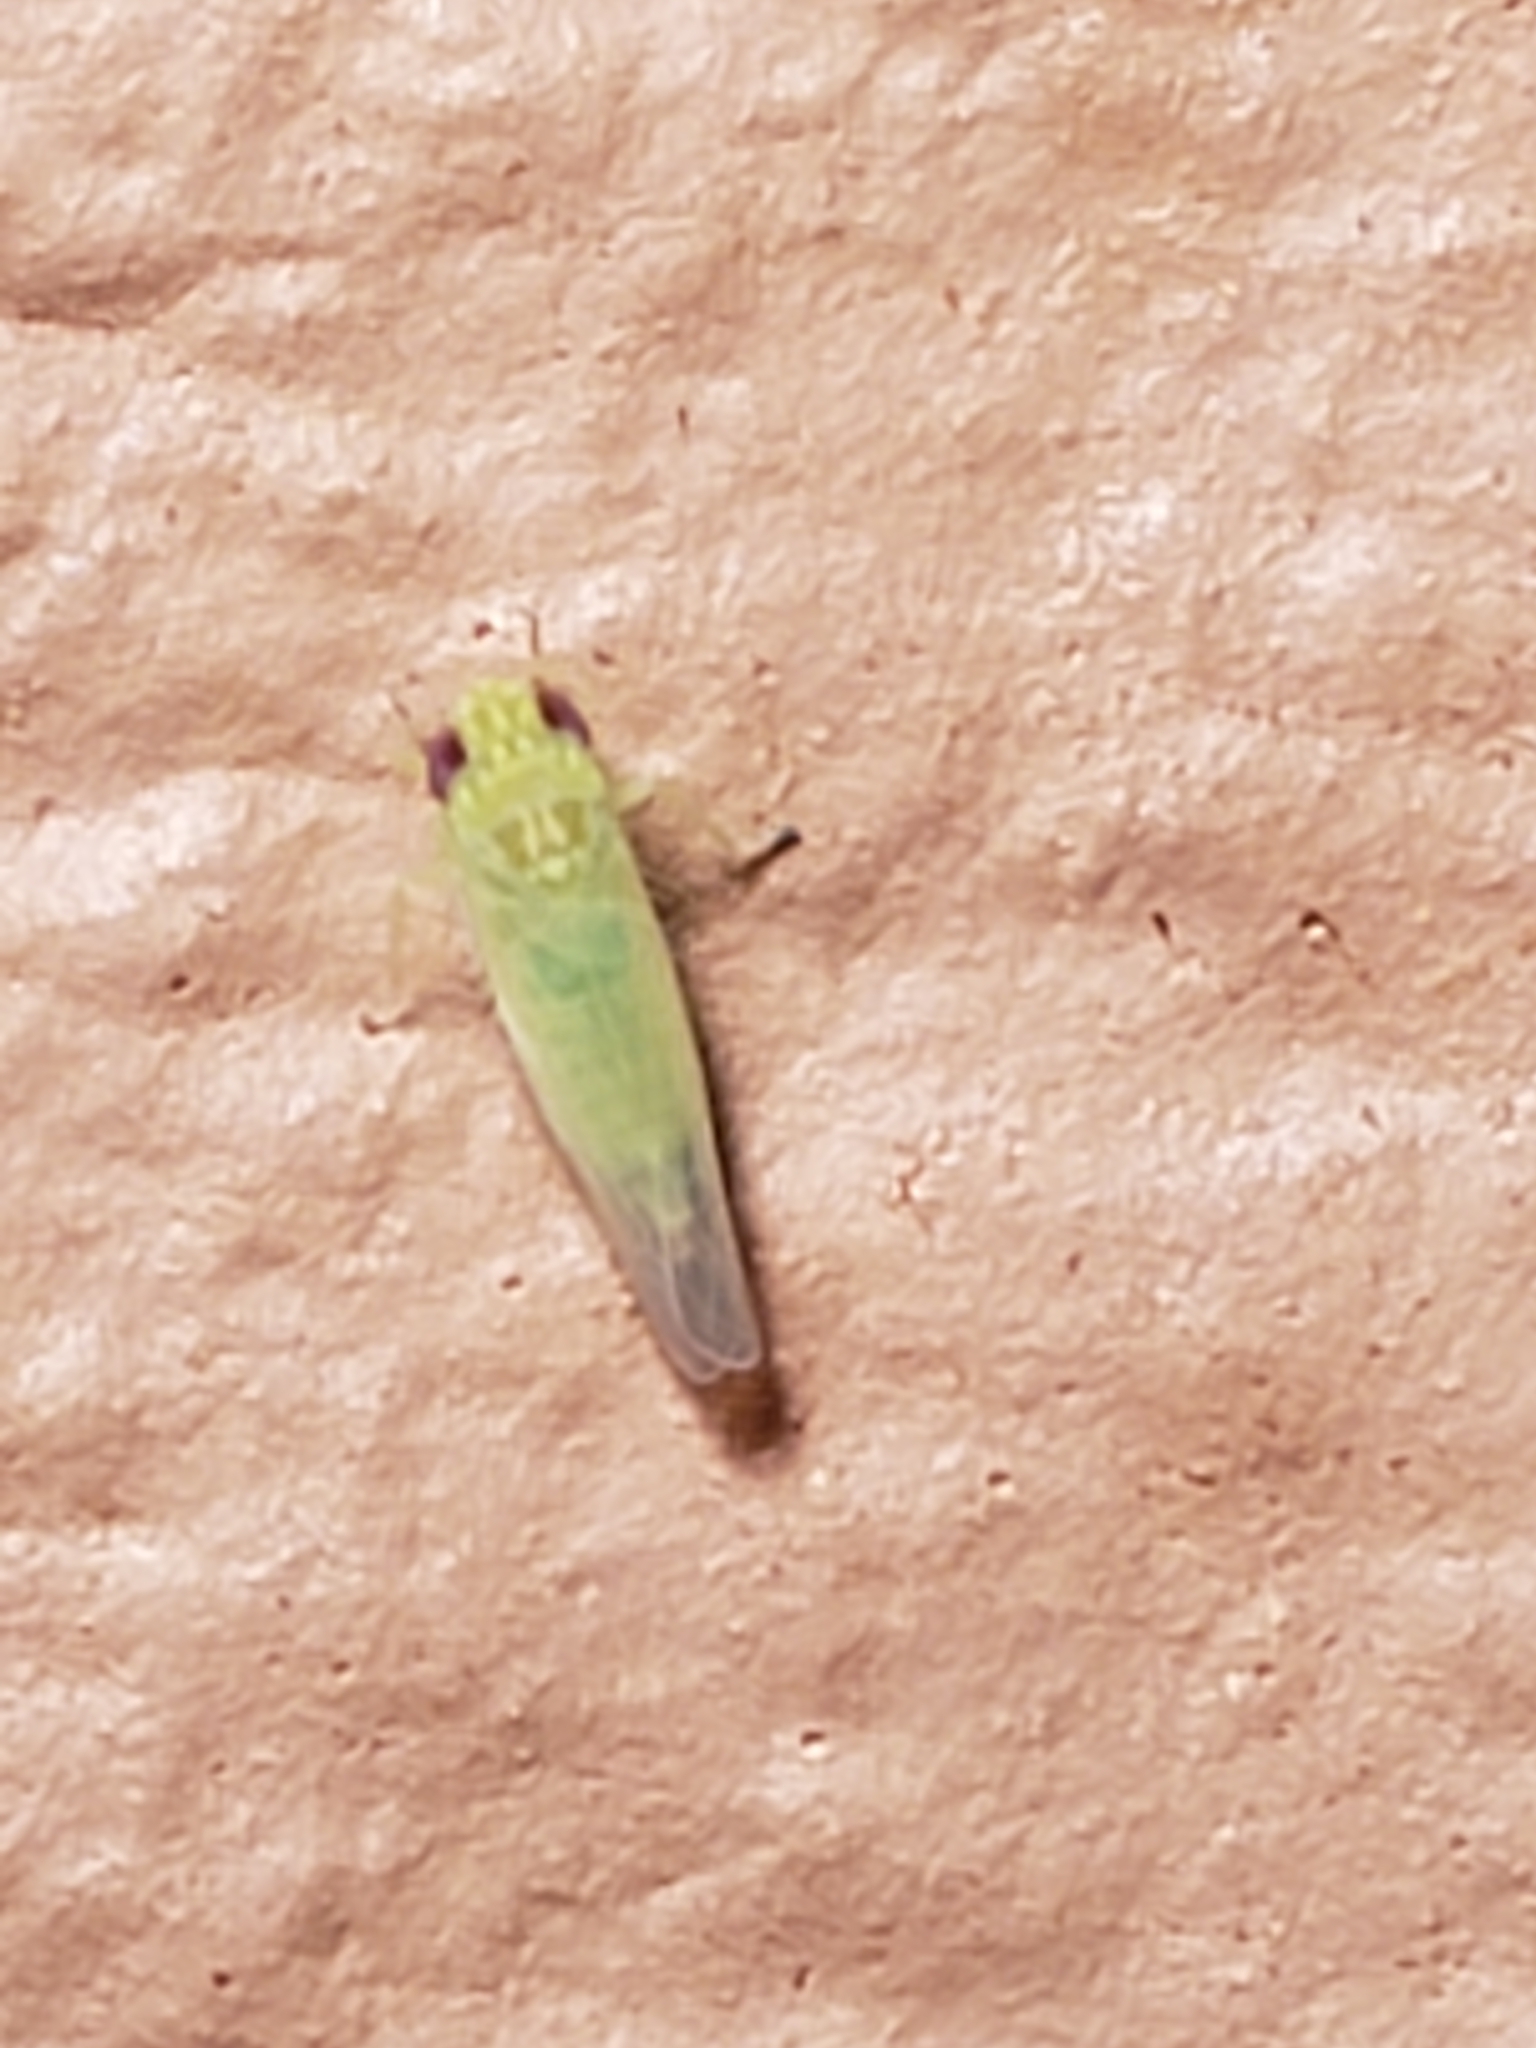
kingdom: Animalia
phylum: Arthropoda
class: Insecta
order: Hemiptera
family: Cicadellidae
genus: Empoasca
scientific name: Empoasca fabae
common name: Potato leafhopper
